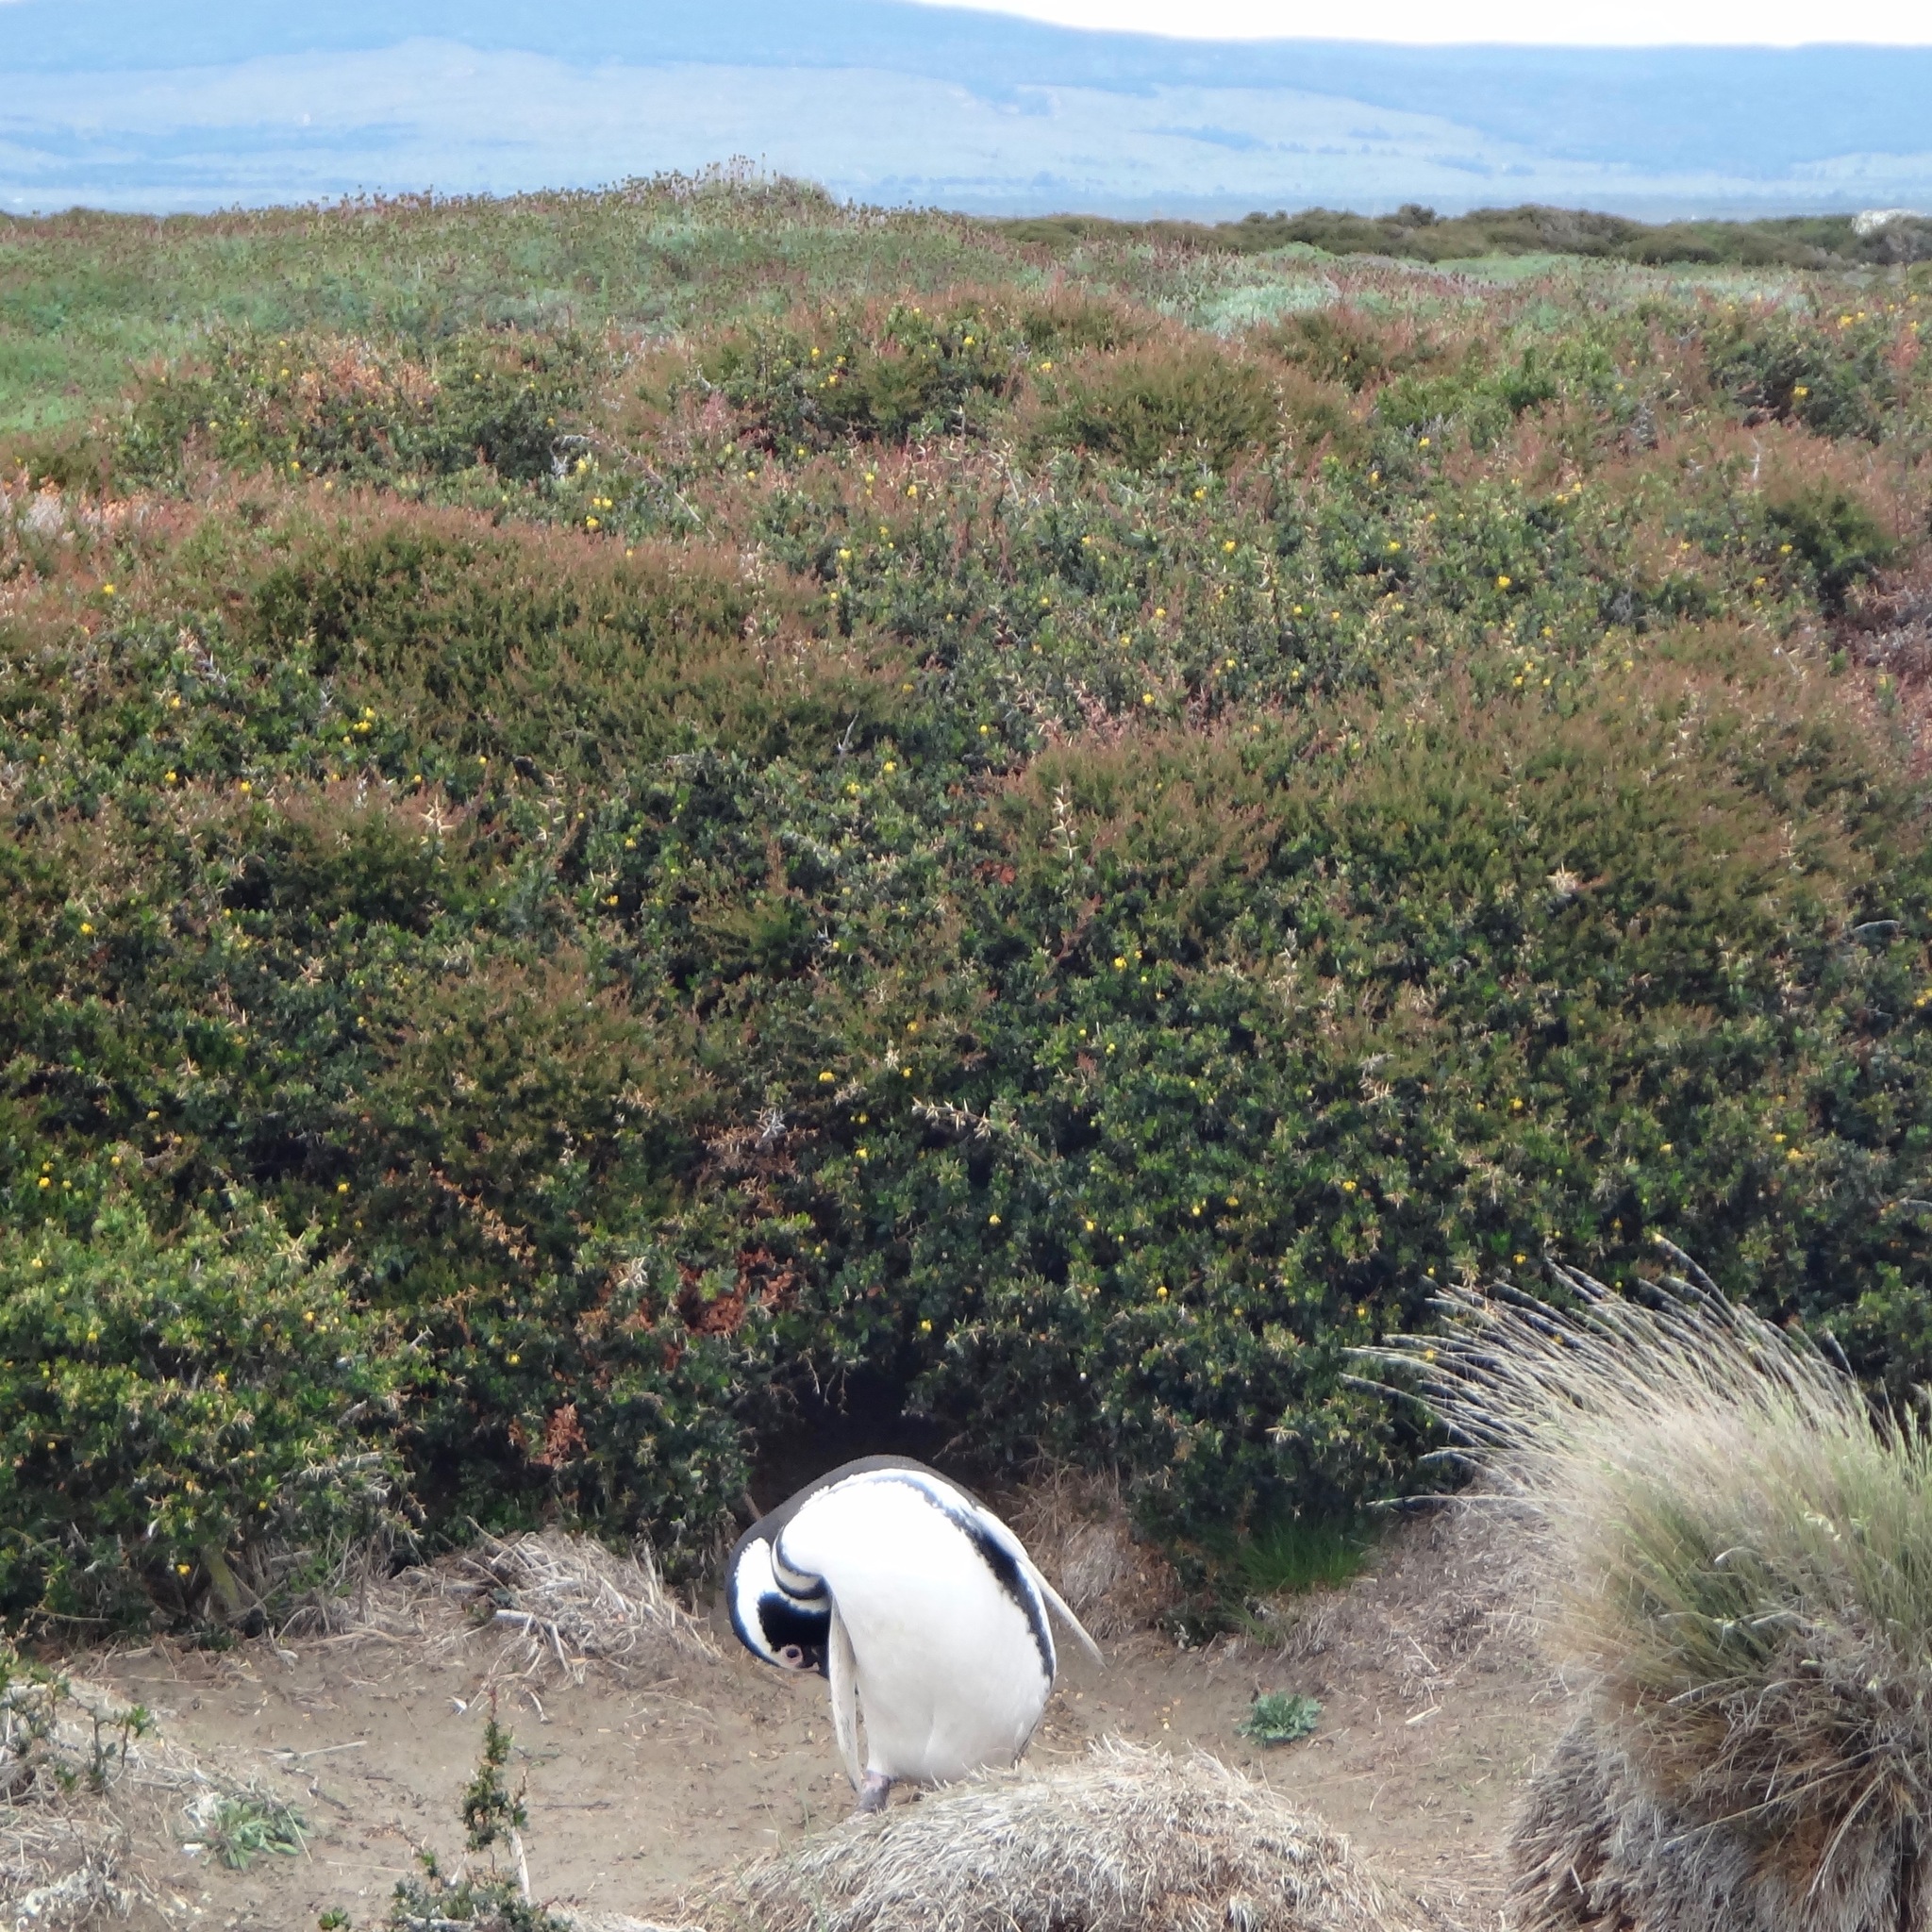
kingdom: Animalia
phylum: Chordata
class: Aves
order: Sphenisciformes
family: Spheniscidae
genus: Spheniscus
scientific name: Spheniscus magellanicus
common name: Magellanic penguin
